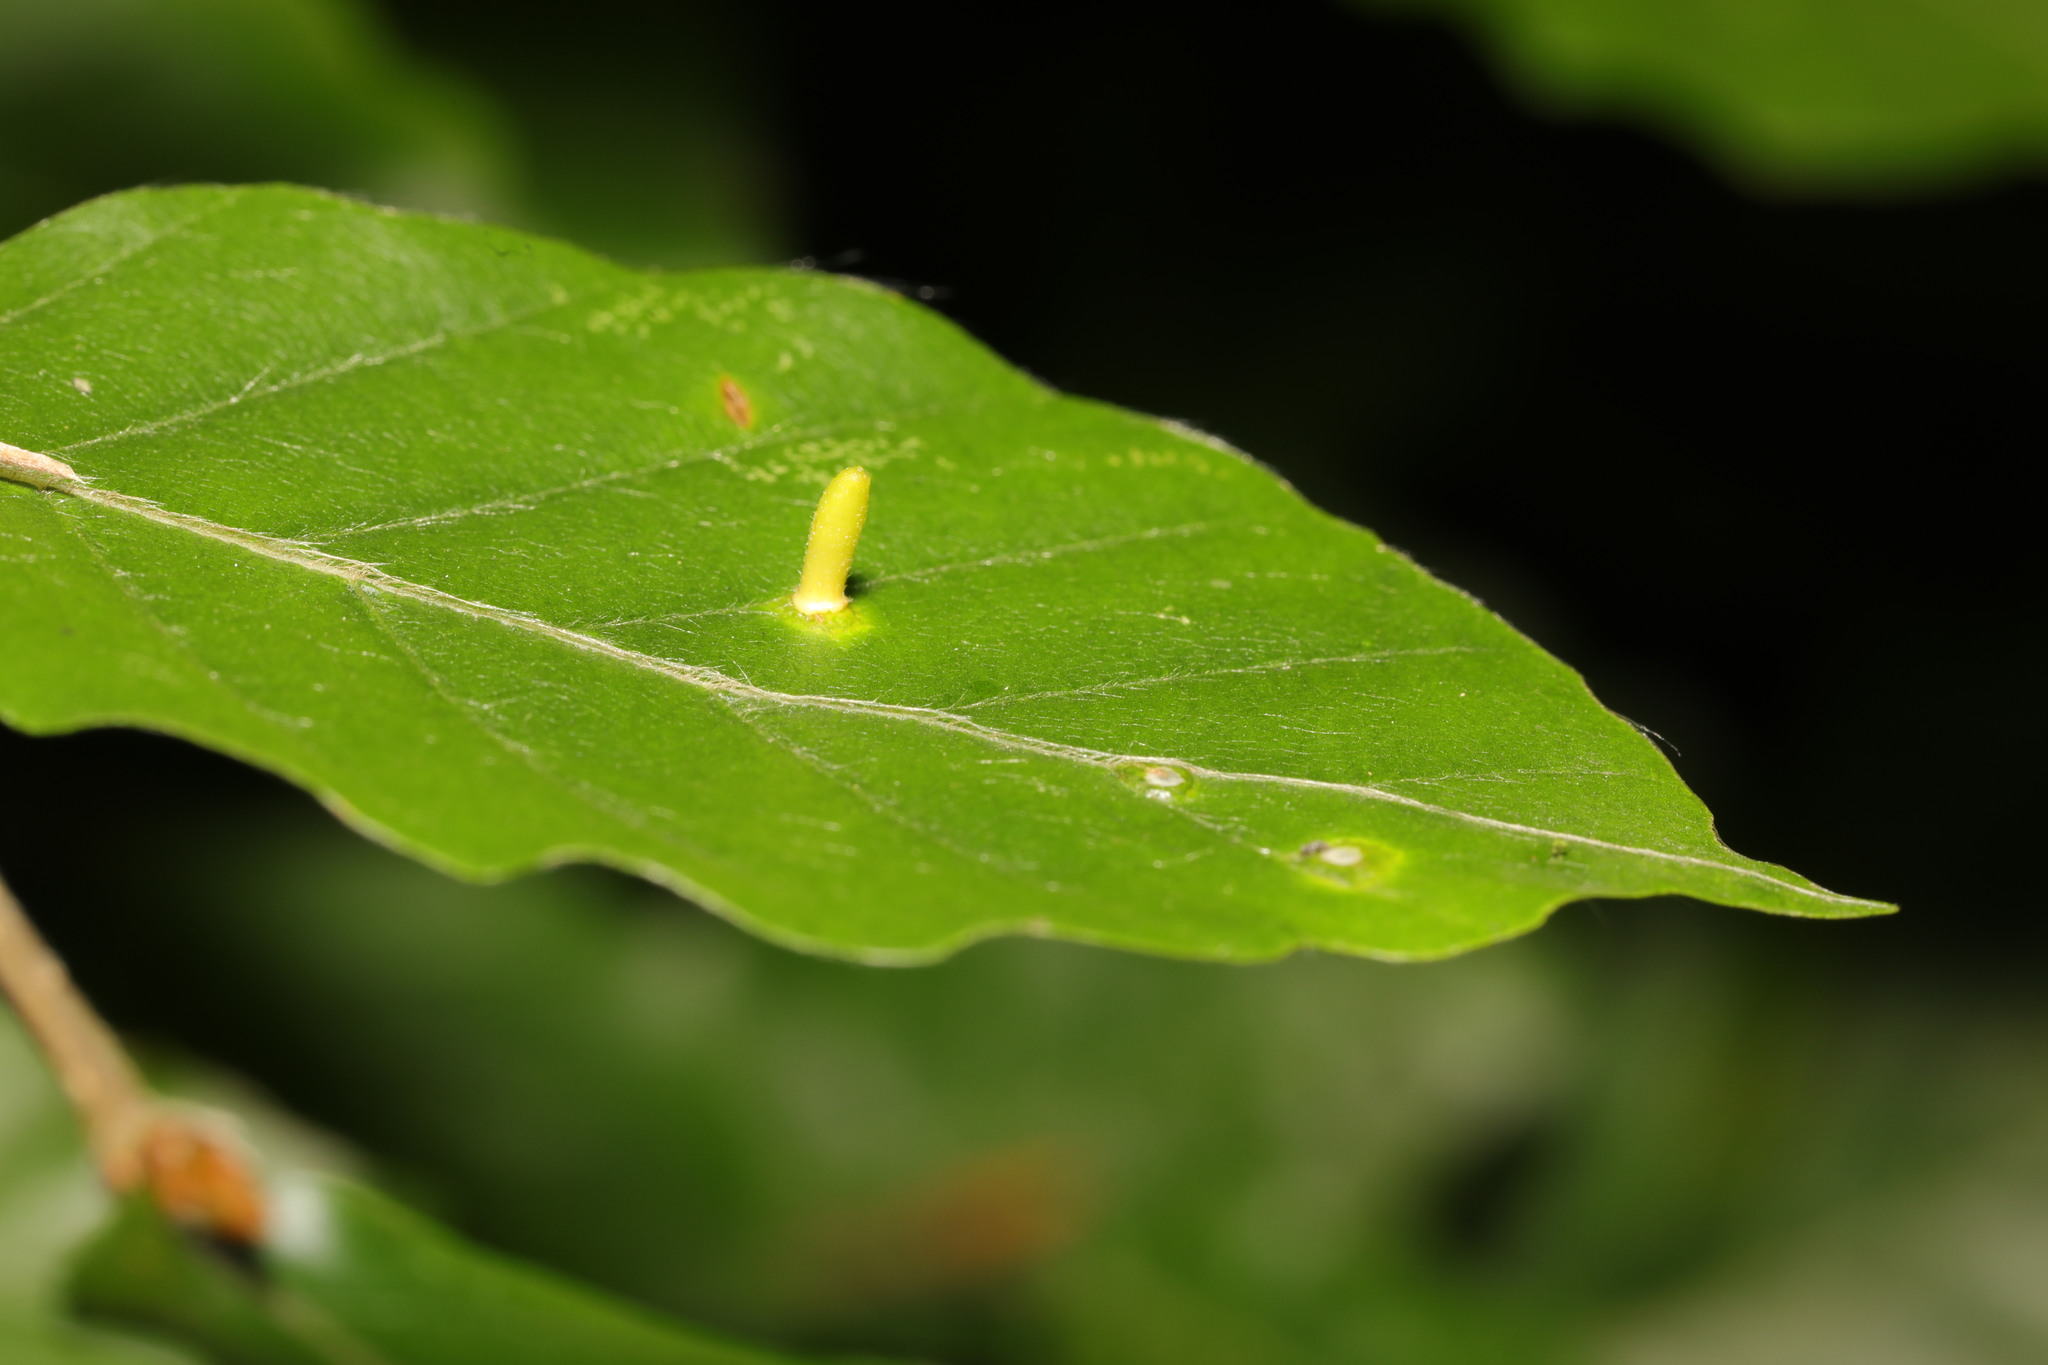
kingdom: Animalia
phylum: Arthropoda
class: Insecta
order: Diptera
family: Cecidomyiidae
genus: Hartigiola
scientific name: Hartigiola annulipes
